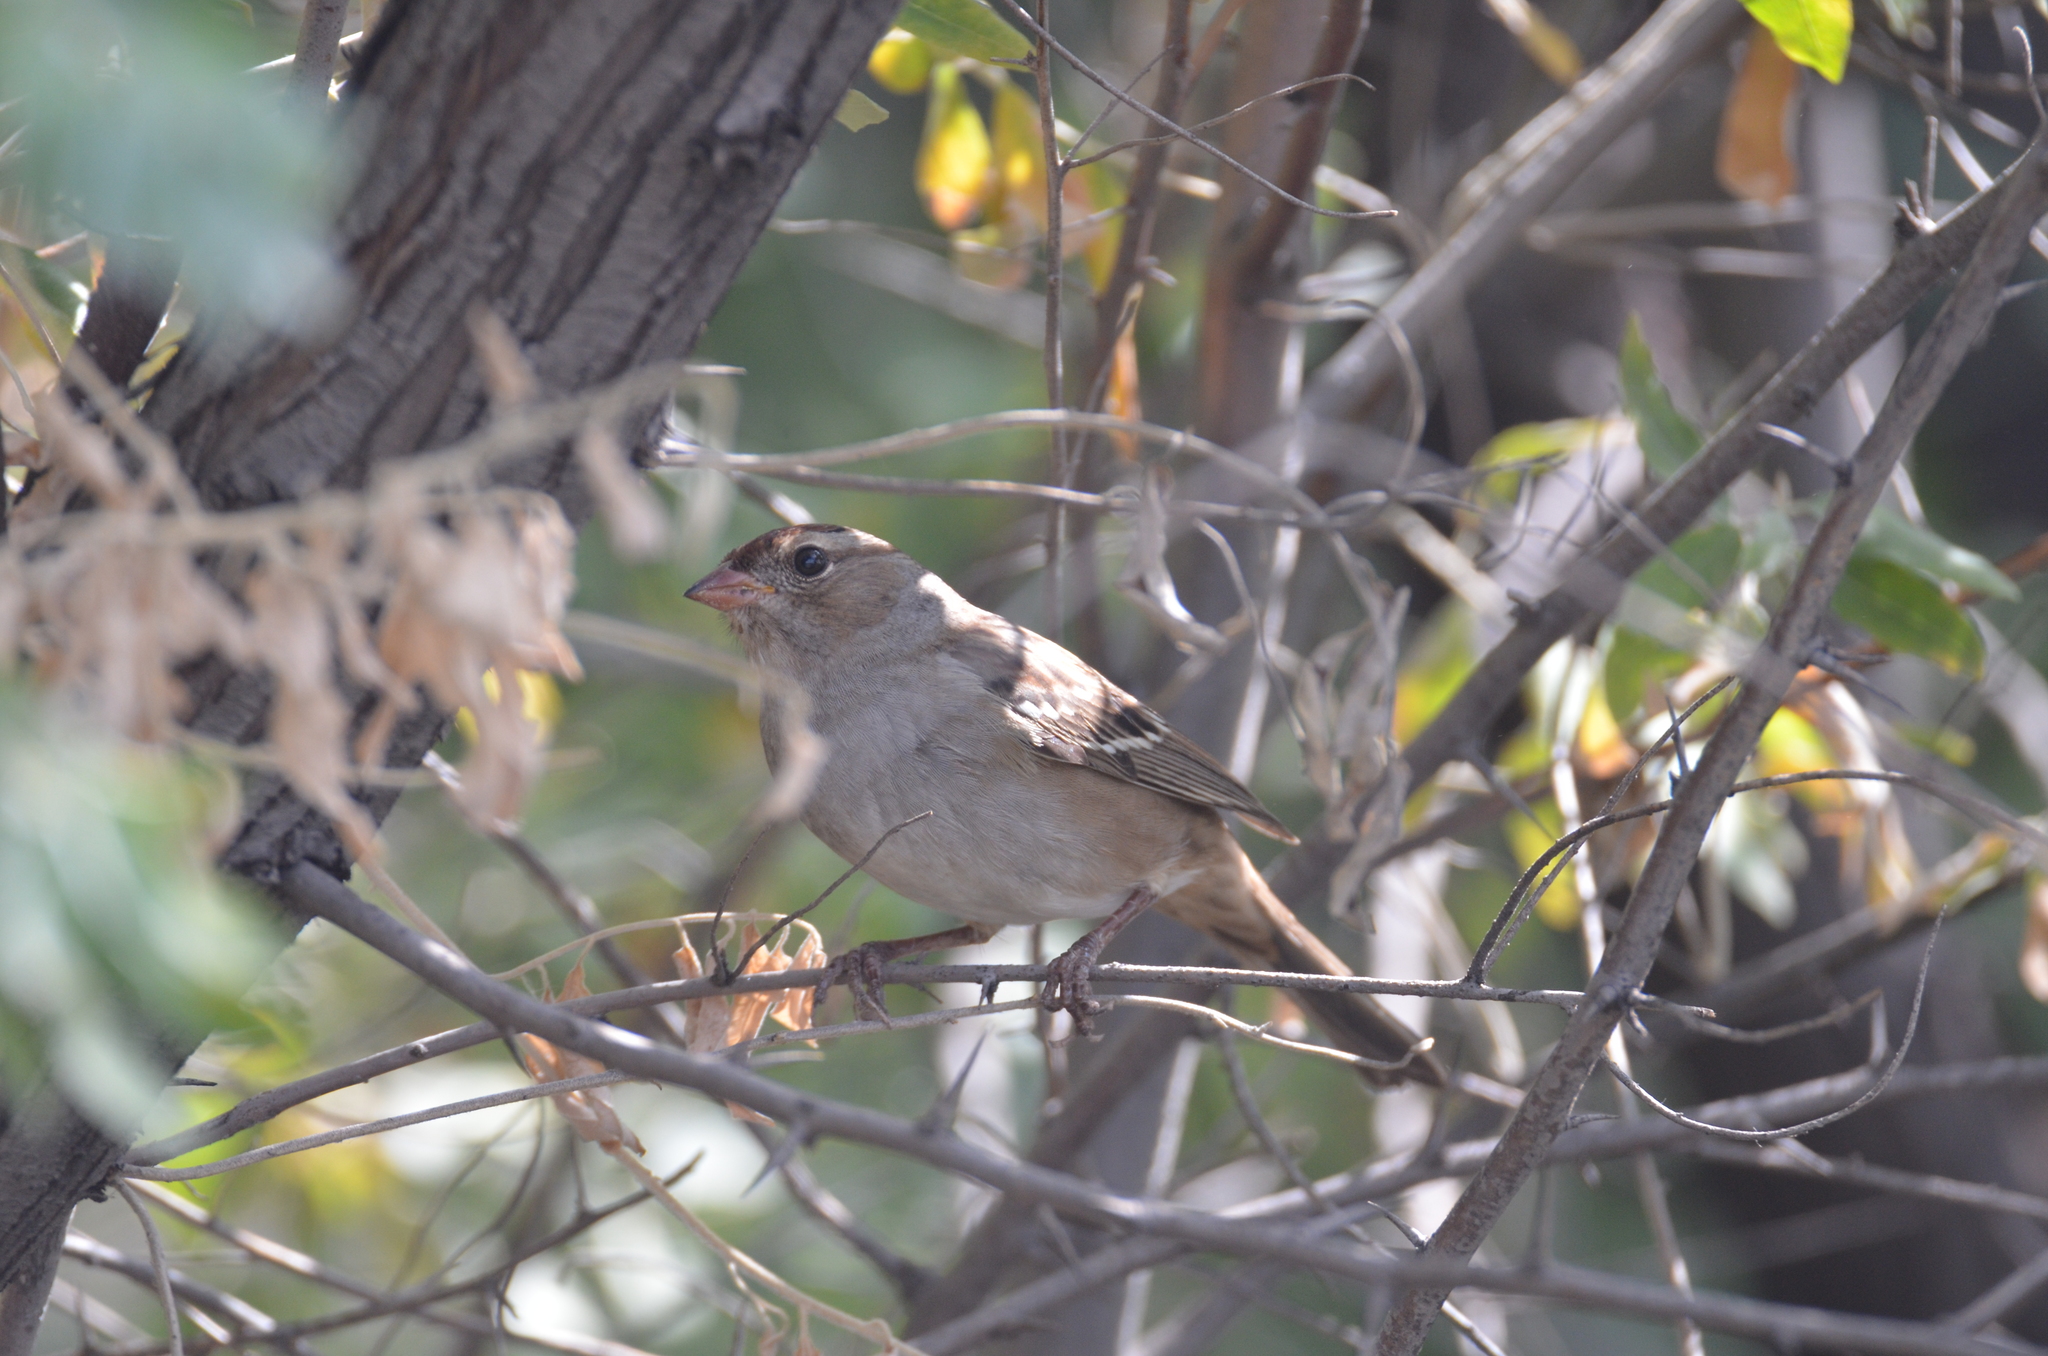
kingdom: Animalia
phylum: Chordata
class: Aves
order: Passeriformes
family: Passerellidae
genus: Zonotrichia
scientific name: Zonotrichia leucophrys
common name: White-crowned sparrow
